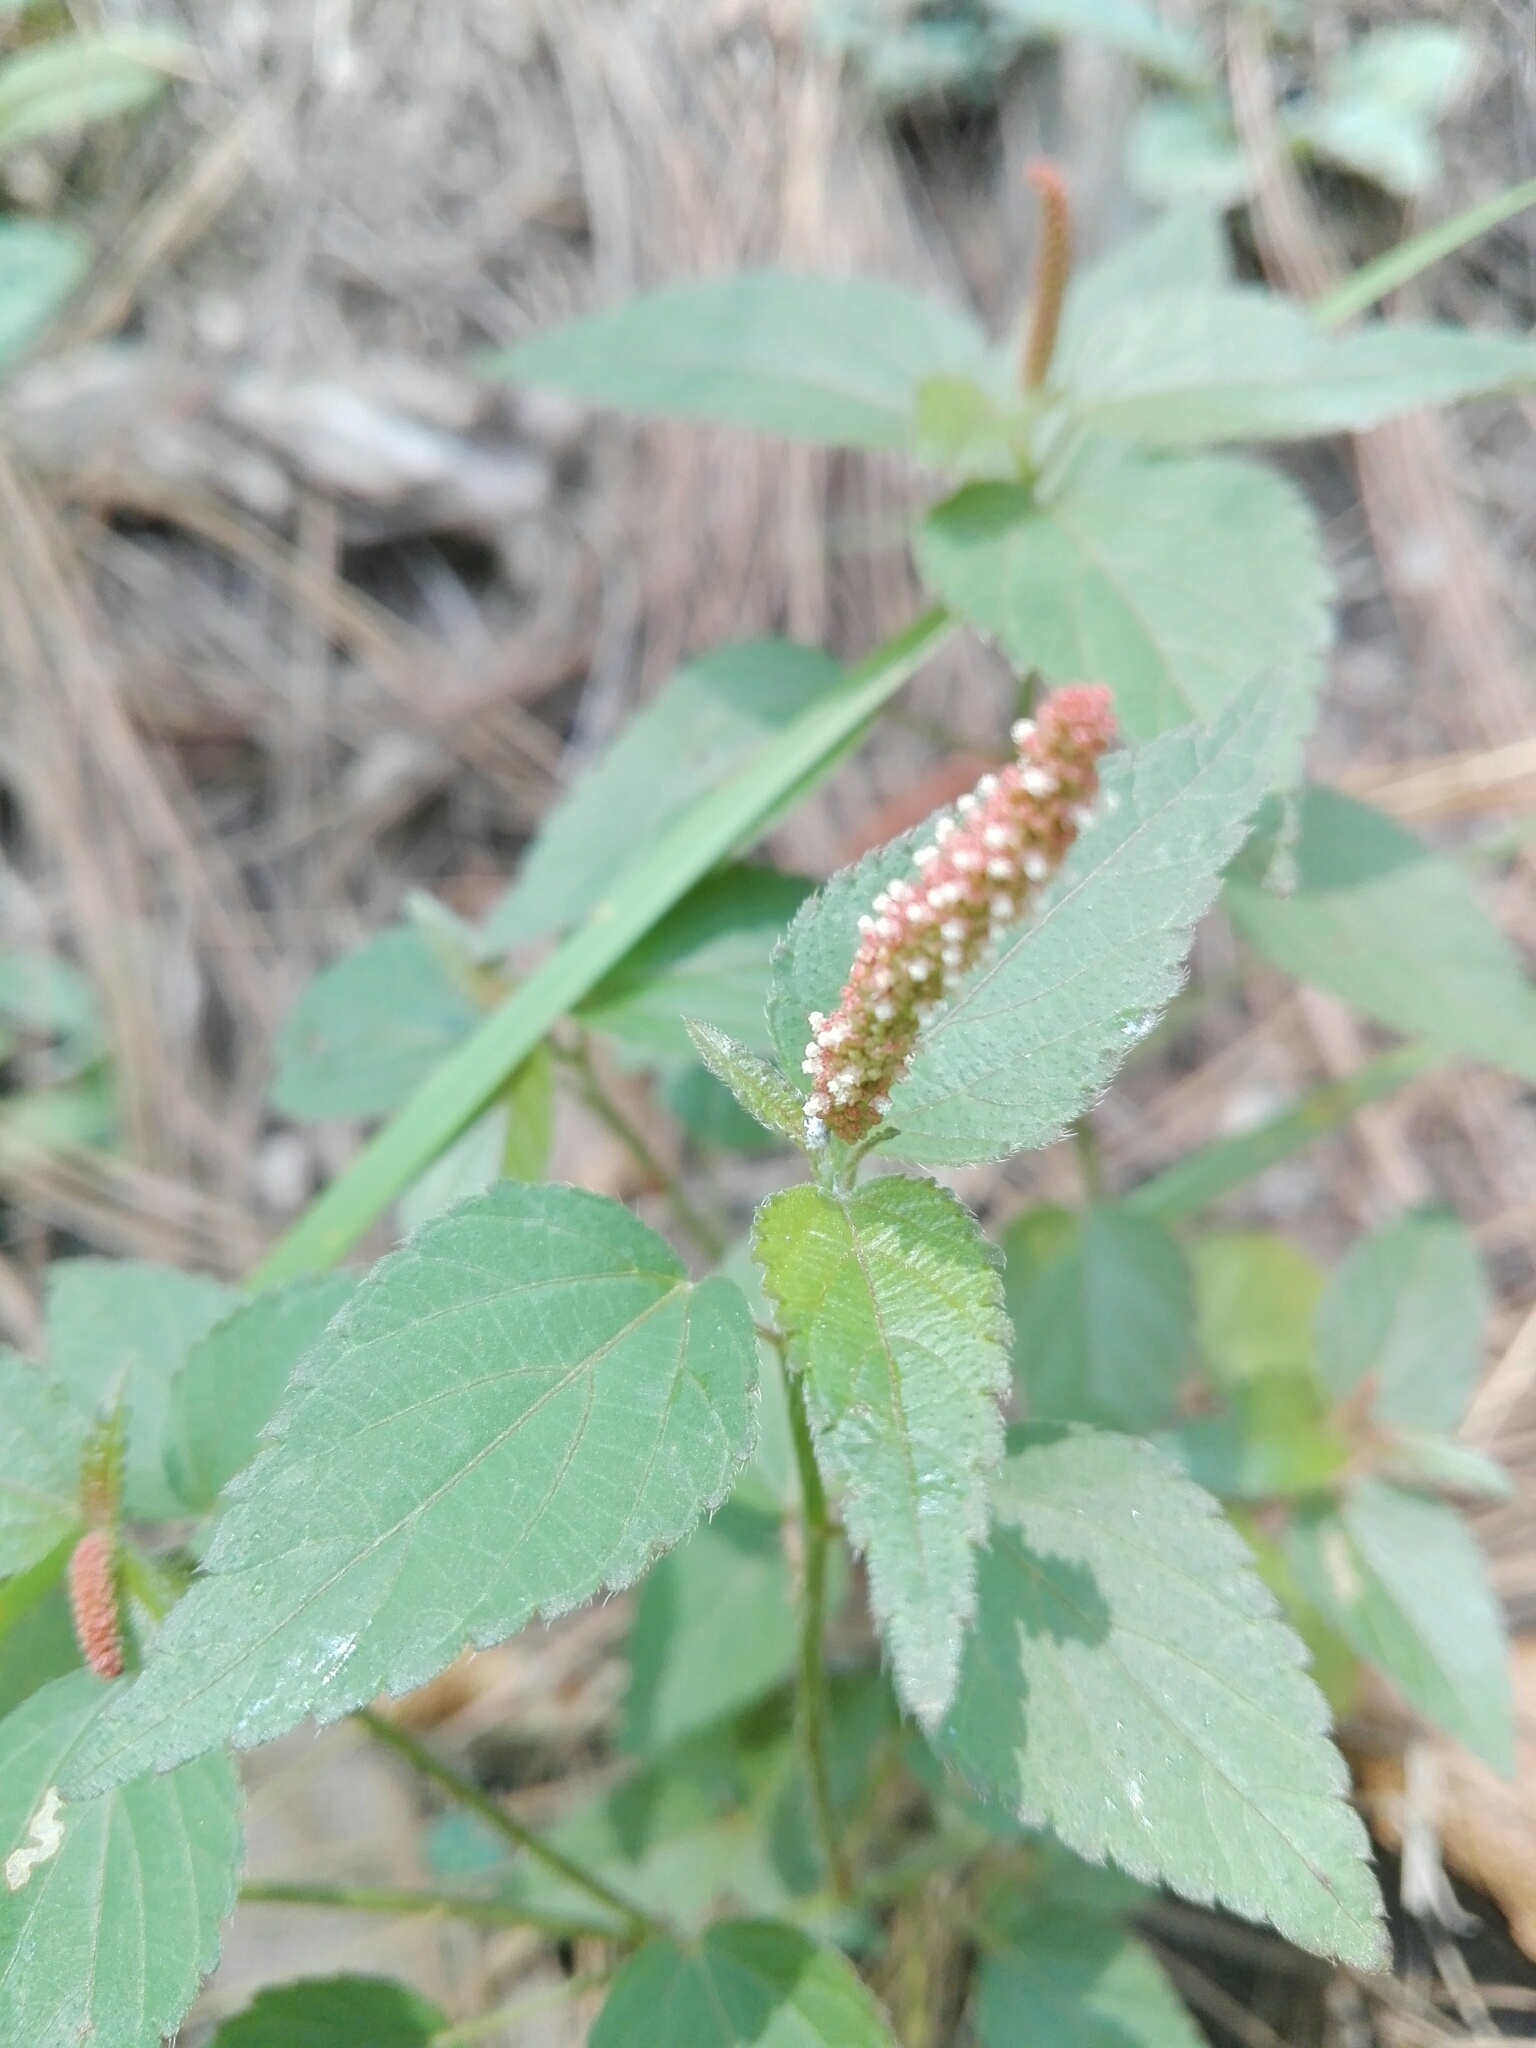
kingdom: Plantae
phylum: Tracheophyta
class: Magnoliopsida
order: Malpighiales
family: Euphorbiaceae
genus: Acalypha
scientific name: Acalypha monostachya
